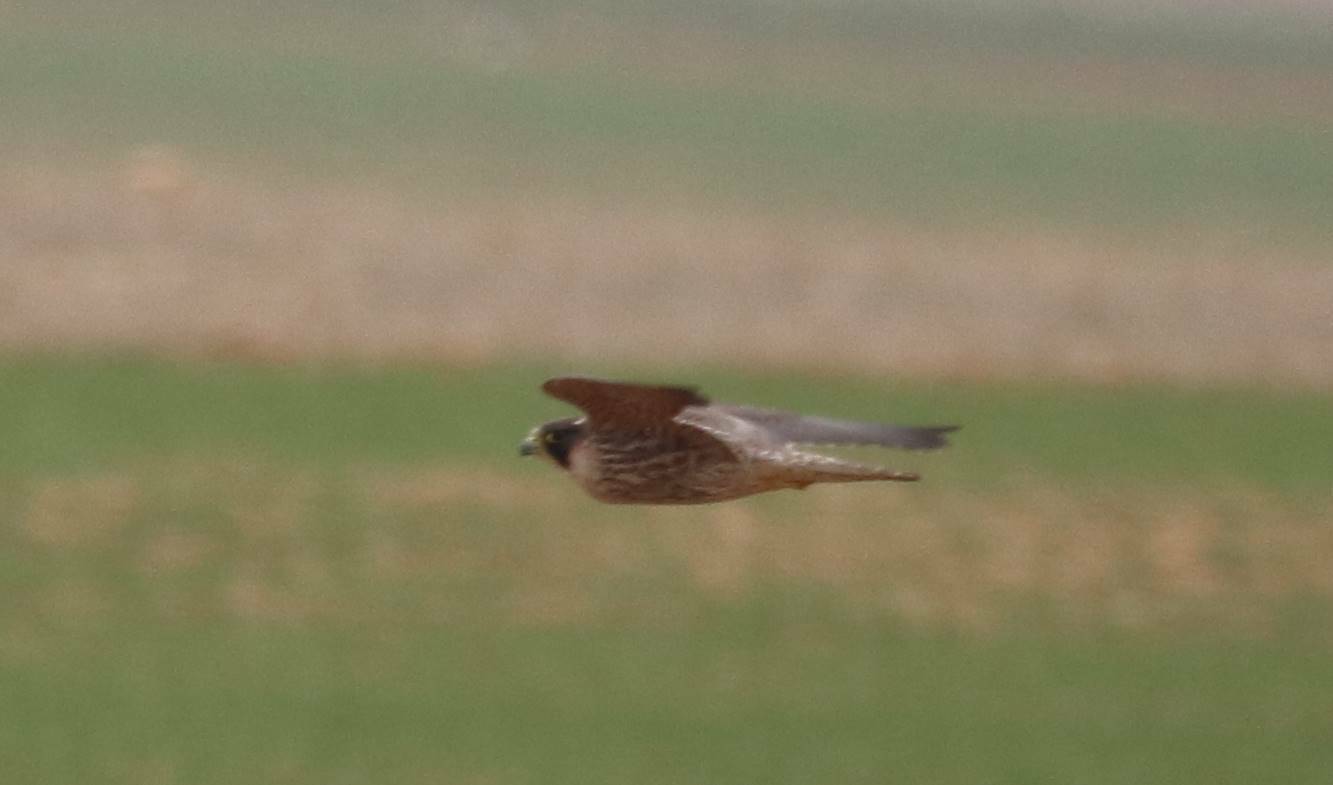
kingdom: Animalia
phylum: Chordata
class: Aves
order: Falconiformes
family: Falconidae
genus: Falco
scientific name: Falco peregrinus
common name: Peregrine falcon
